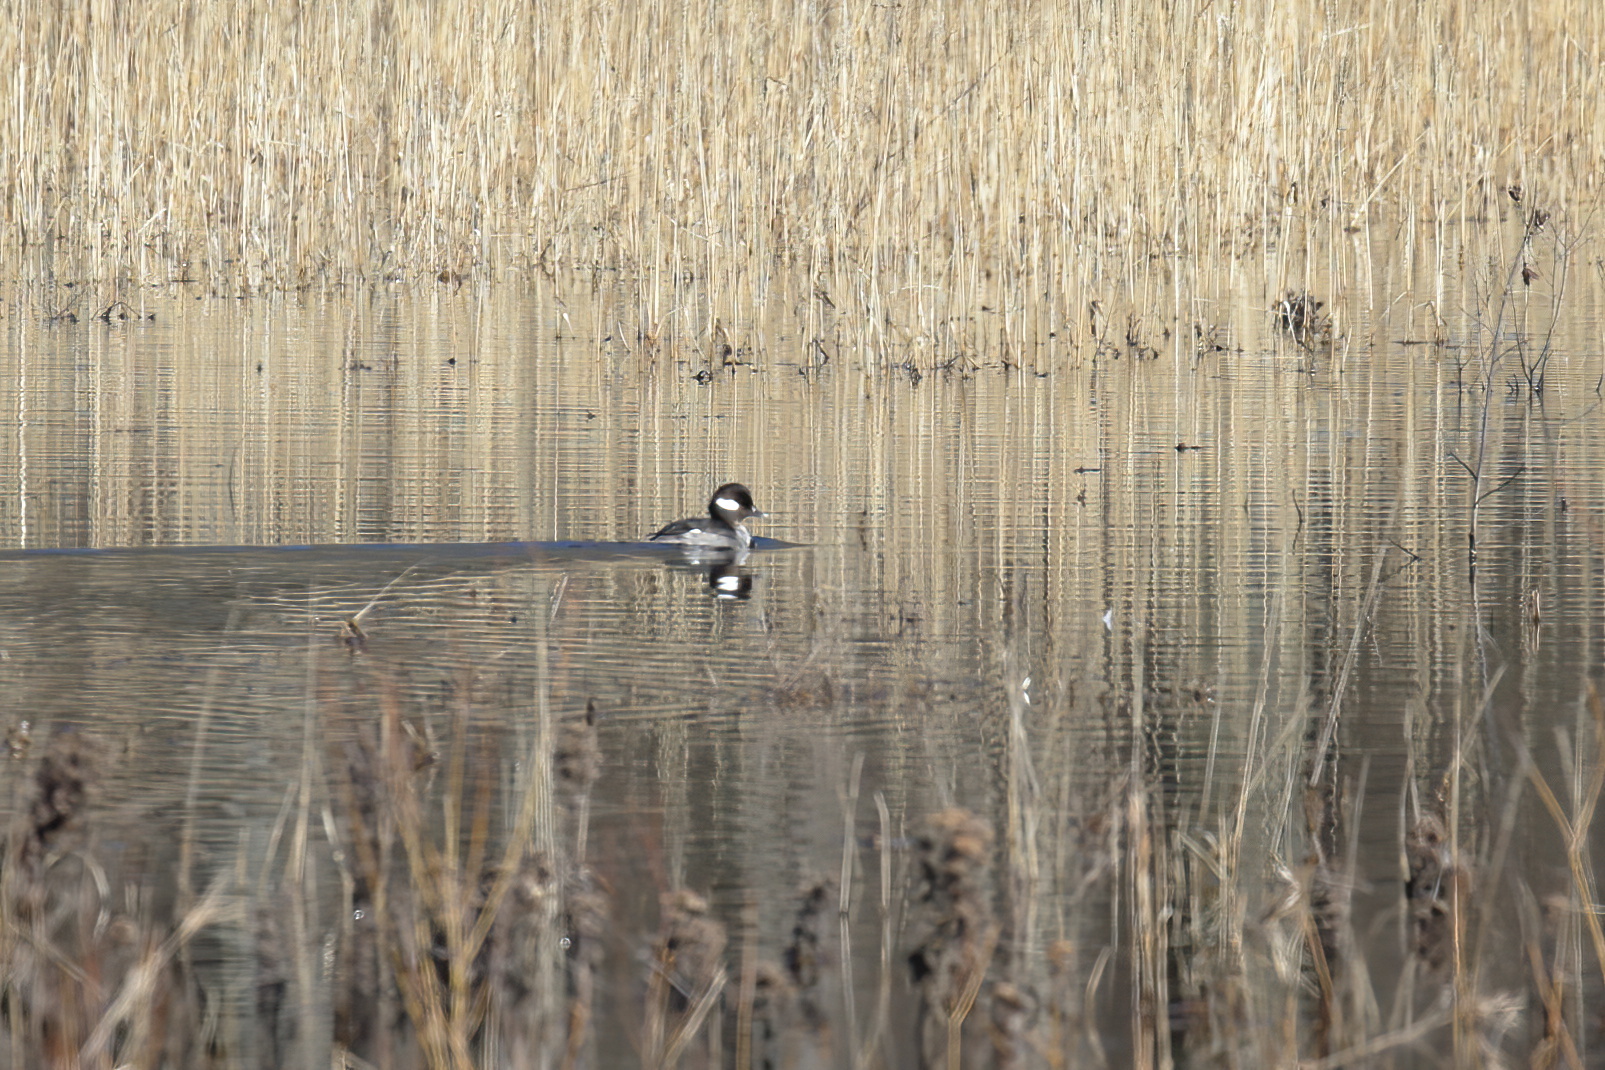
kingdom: Animalia
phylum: Chordata
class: Aves
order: Anseriformes
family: Anatidae
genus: Bucephala
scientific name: Bucephala albeola
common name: Bufflehead
